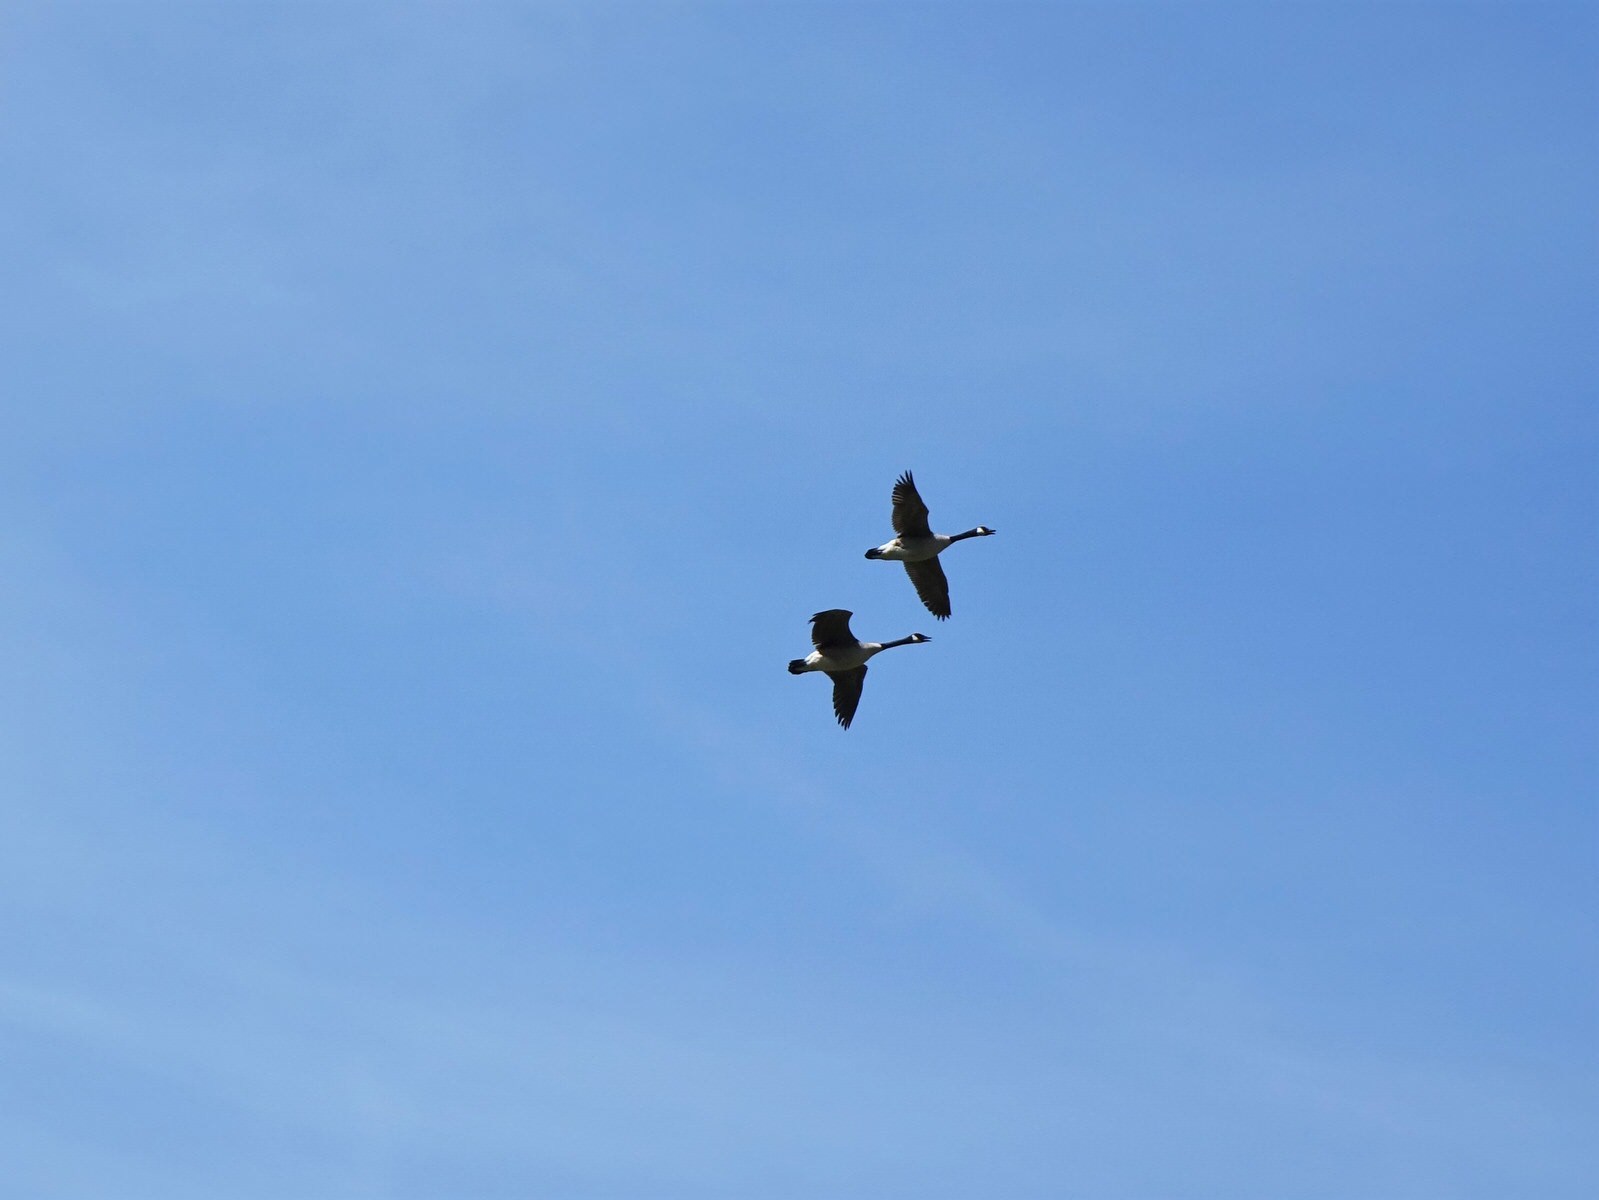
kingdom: Animalia
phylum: Chordata
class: Aves
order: Anseriformes
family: Anatidae
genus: Branta
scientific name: Branta canadensis
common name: Canada goose
